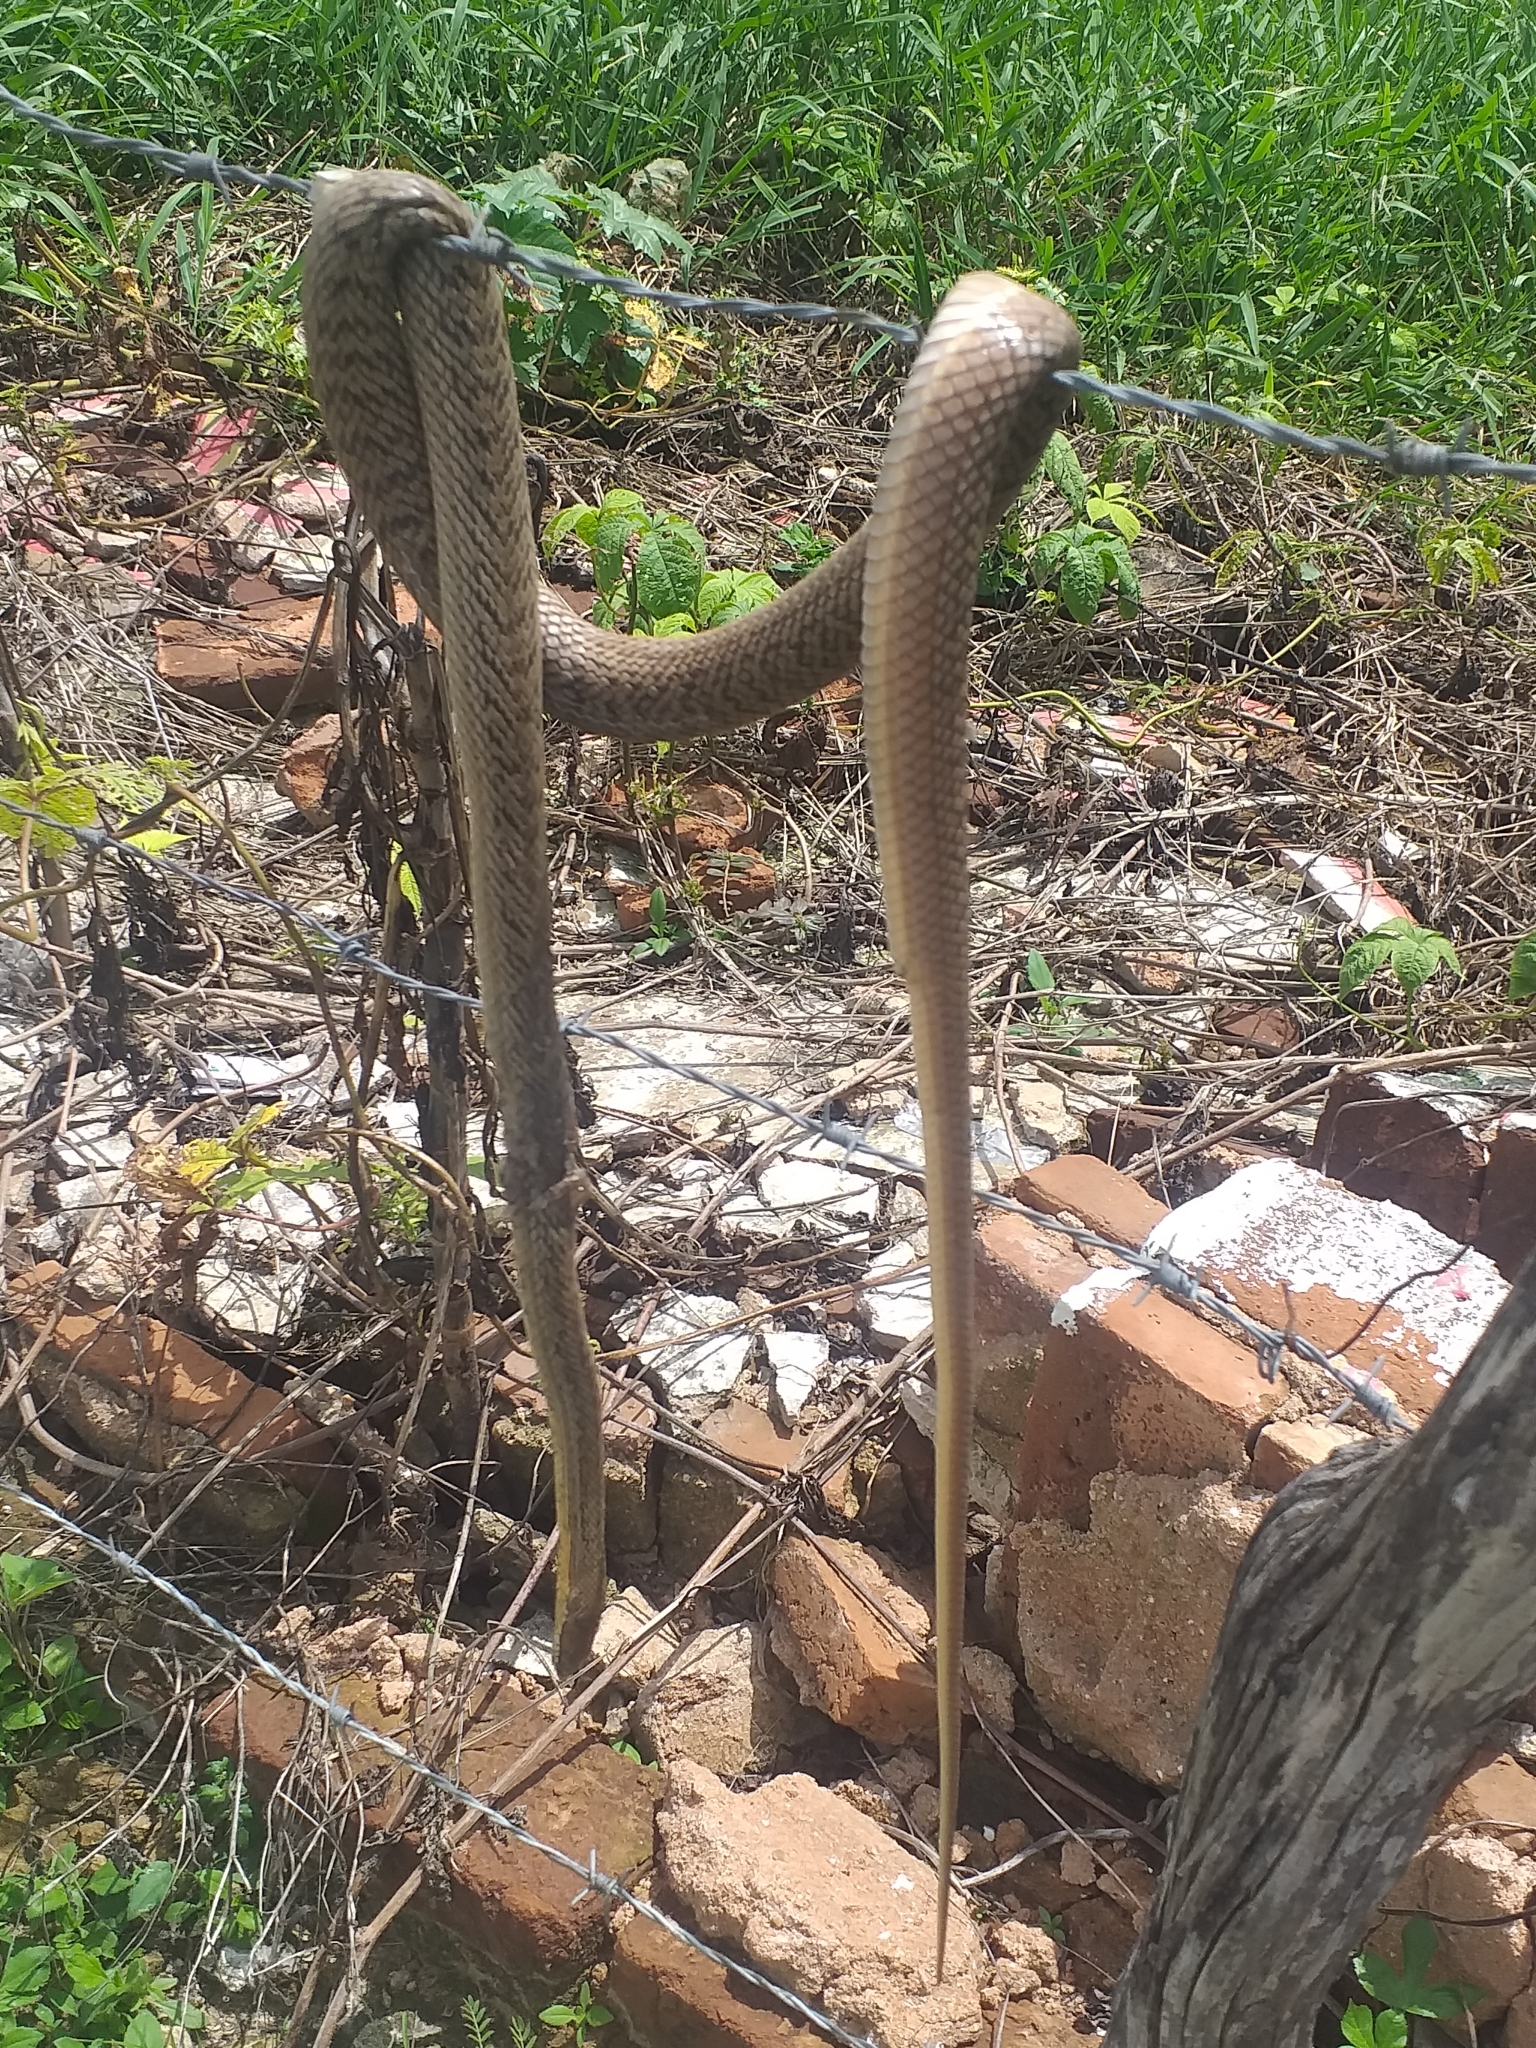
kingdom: Animalia
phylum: Chordata
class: Squamata
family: Colubridae
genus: Philodryas
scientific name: Philodryas nattereri
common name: Paraguay green racer
